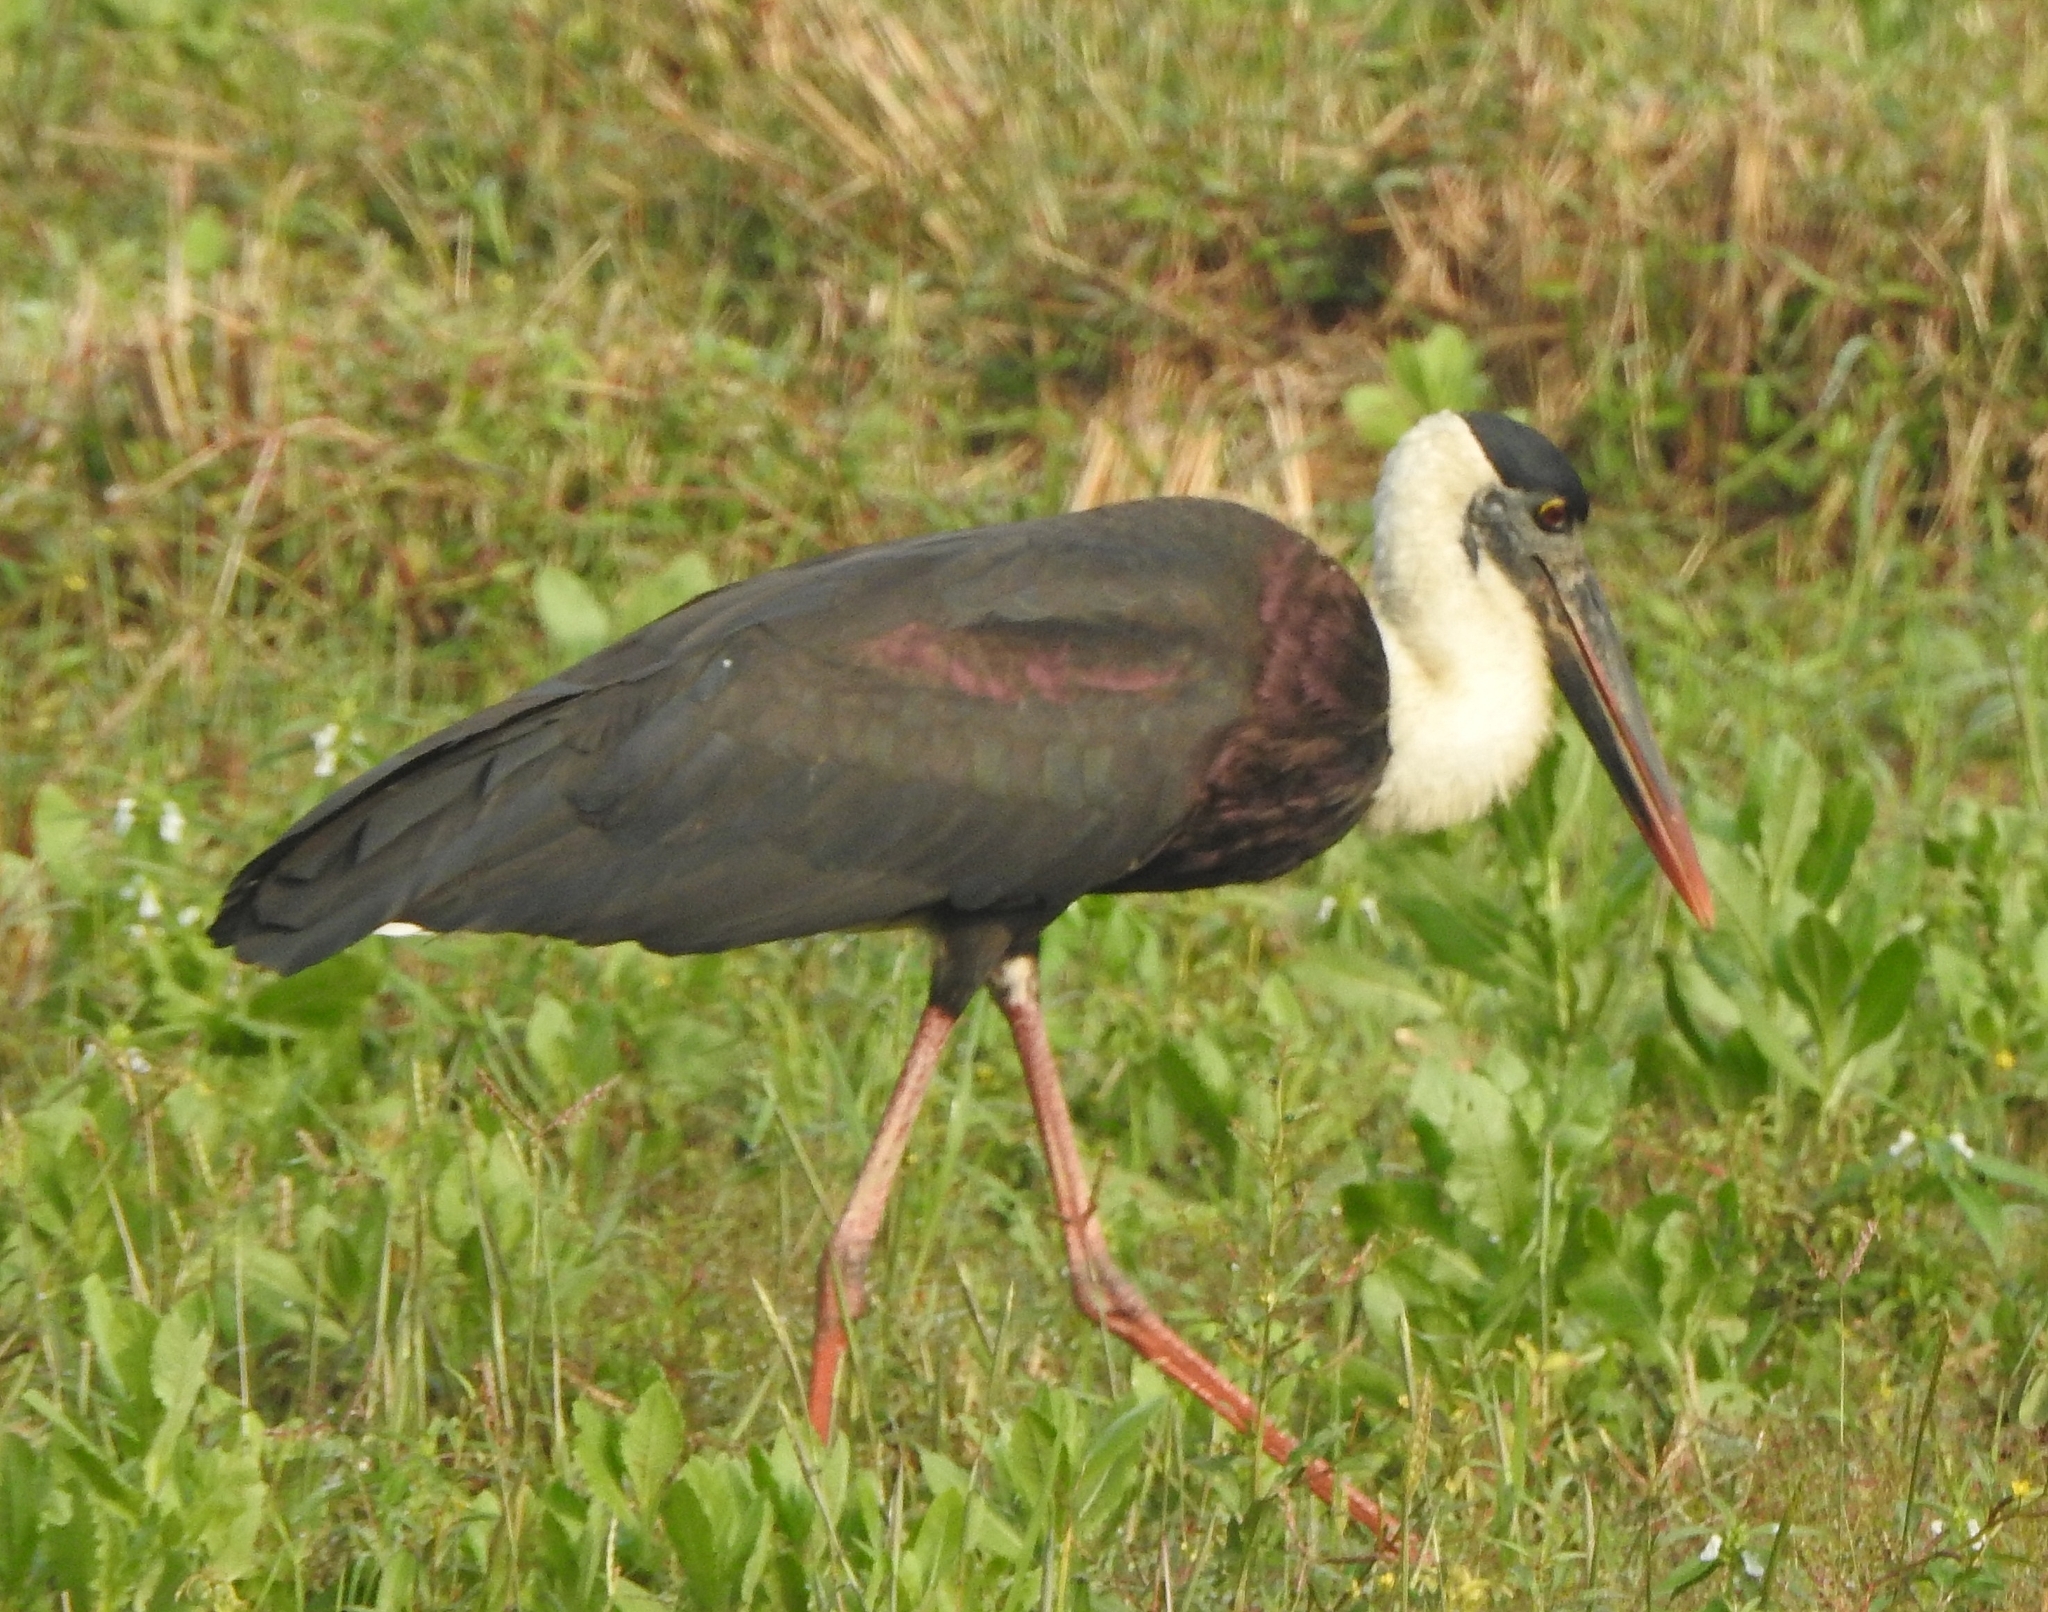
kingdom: Animalia
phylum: Chordata
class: Aves
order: Ciconiiformes
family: Ciconiidae
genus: Ciconia
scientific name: Ciconia episcopus
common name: Woolly-necked stork
